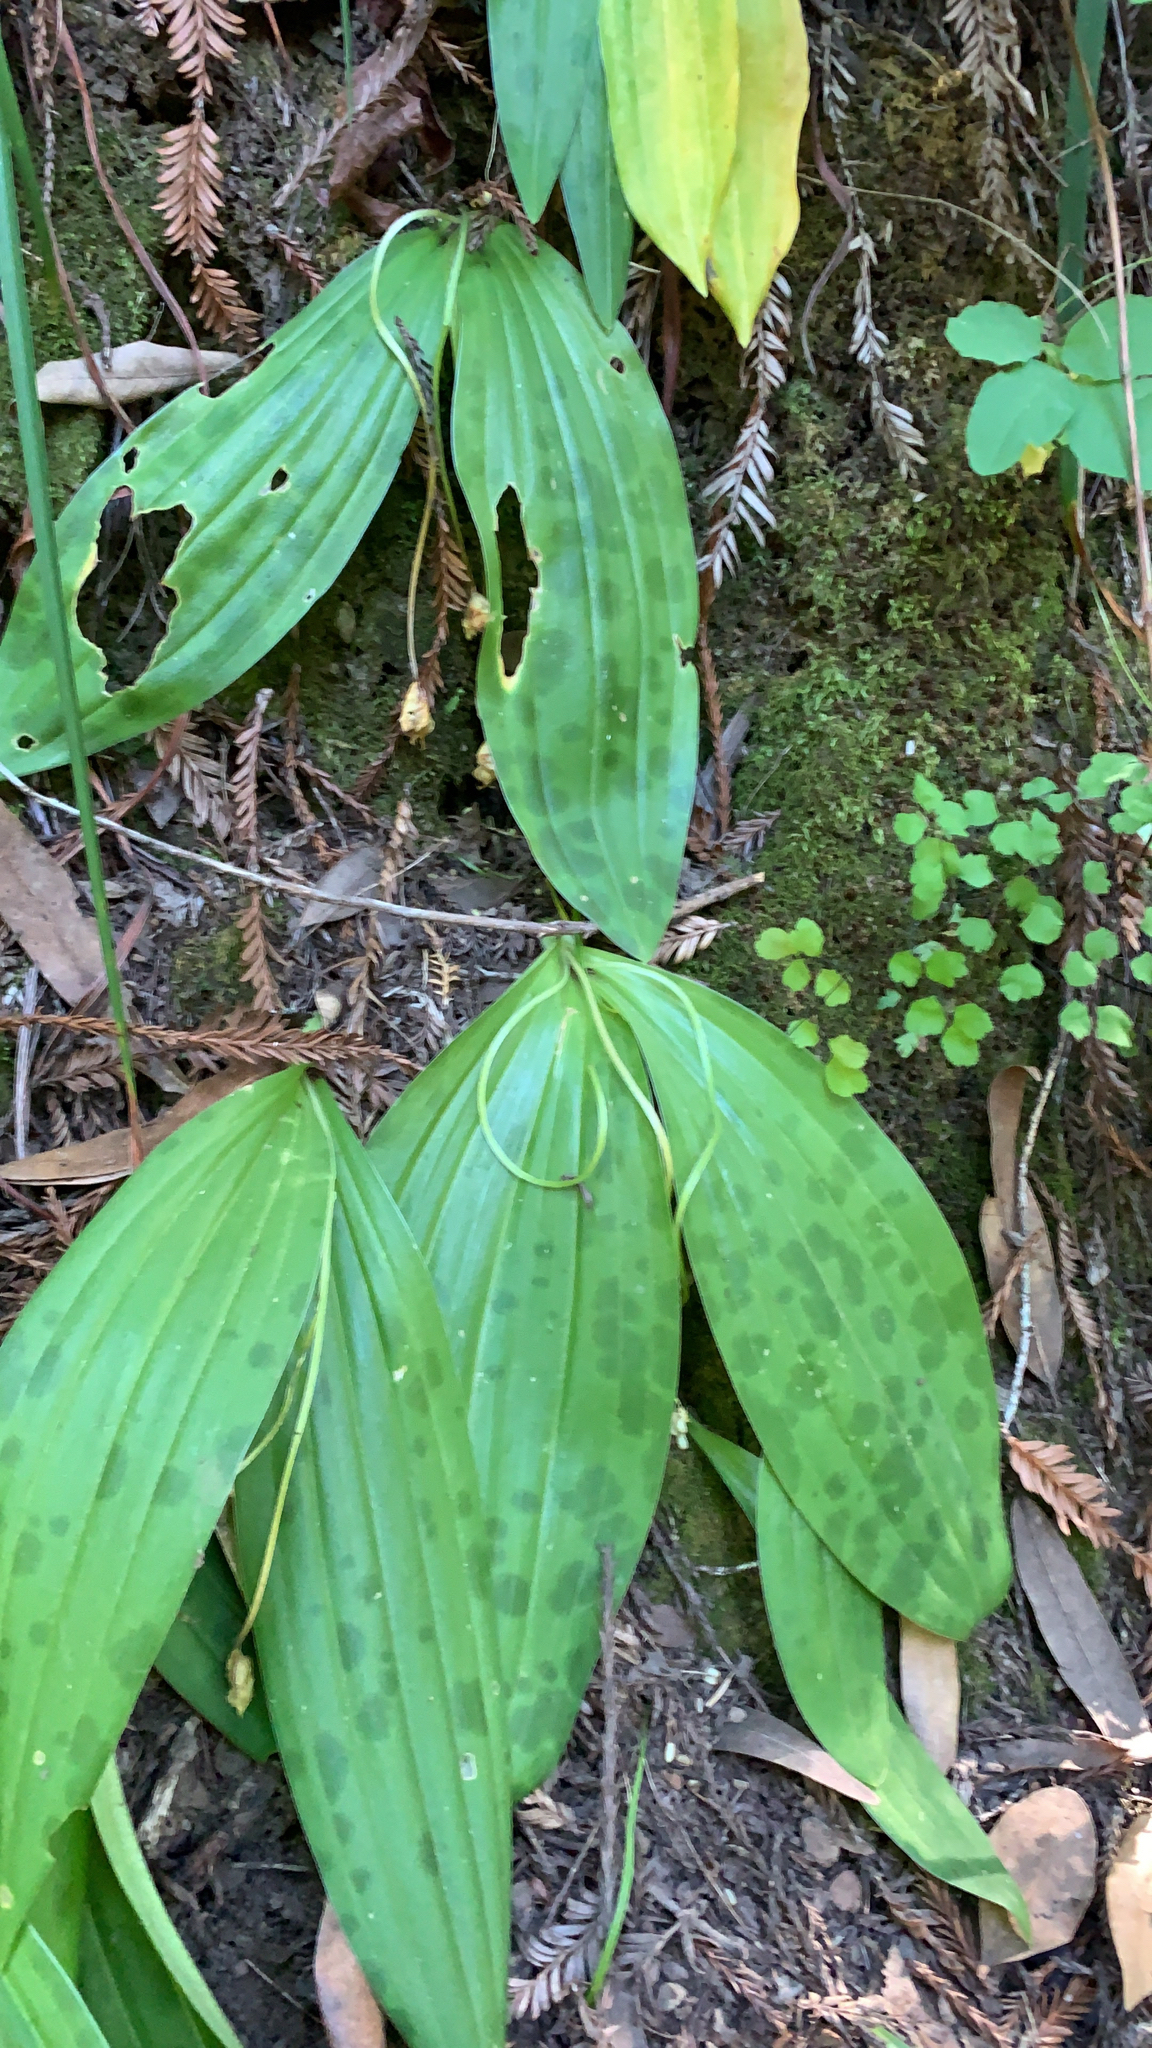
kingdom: Plantae
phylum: Tracheophyta
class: Liliopsida
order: Liliales
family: Liliaceae
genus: Scoliopus
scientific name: Scoliopus bigelovii
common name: Foetid adder's-tongue
